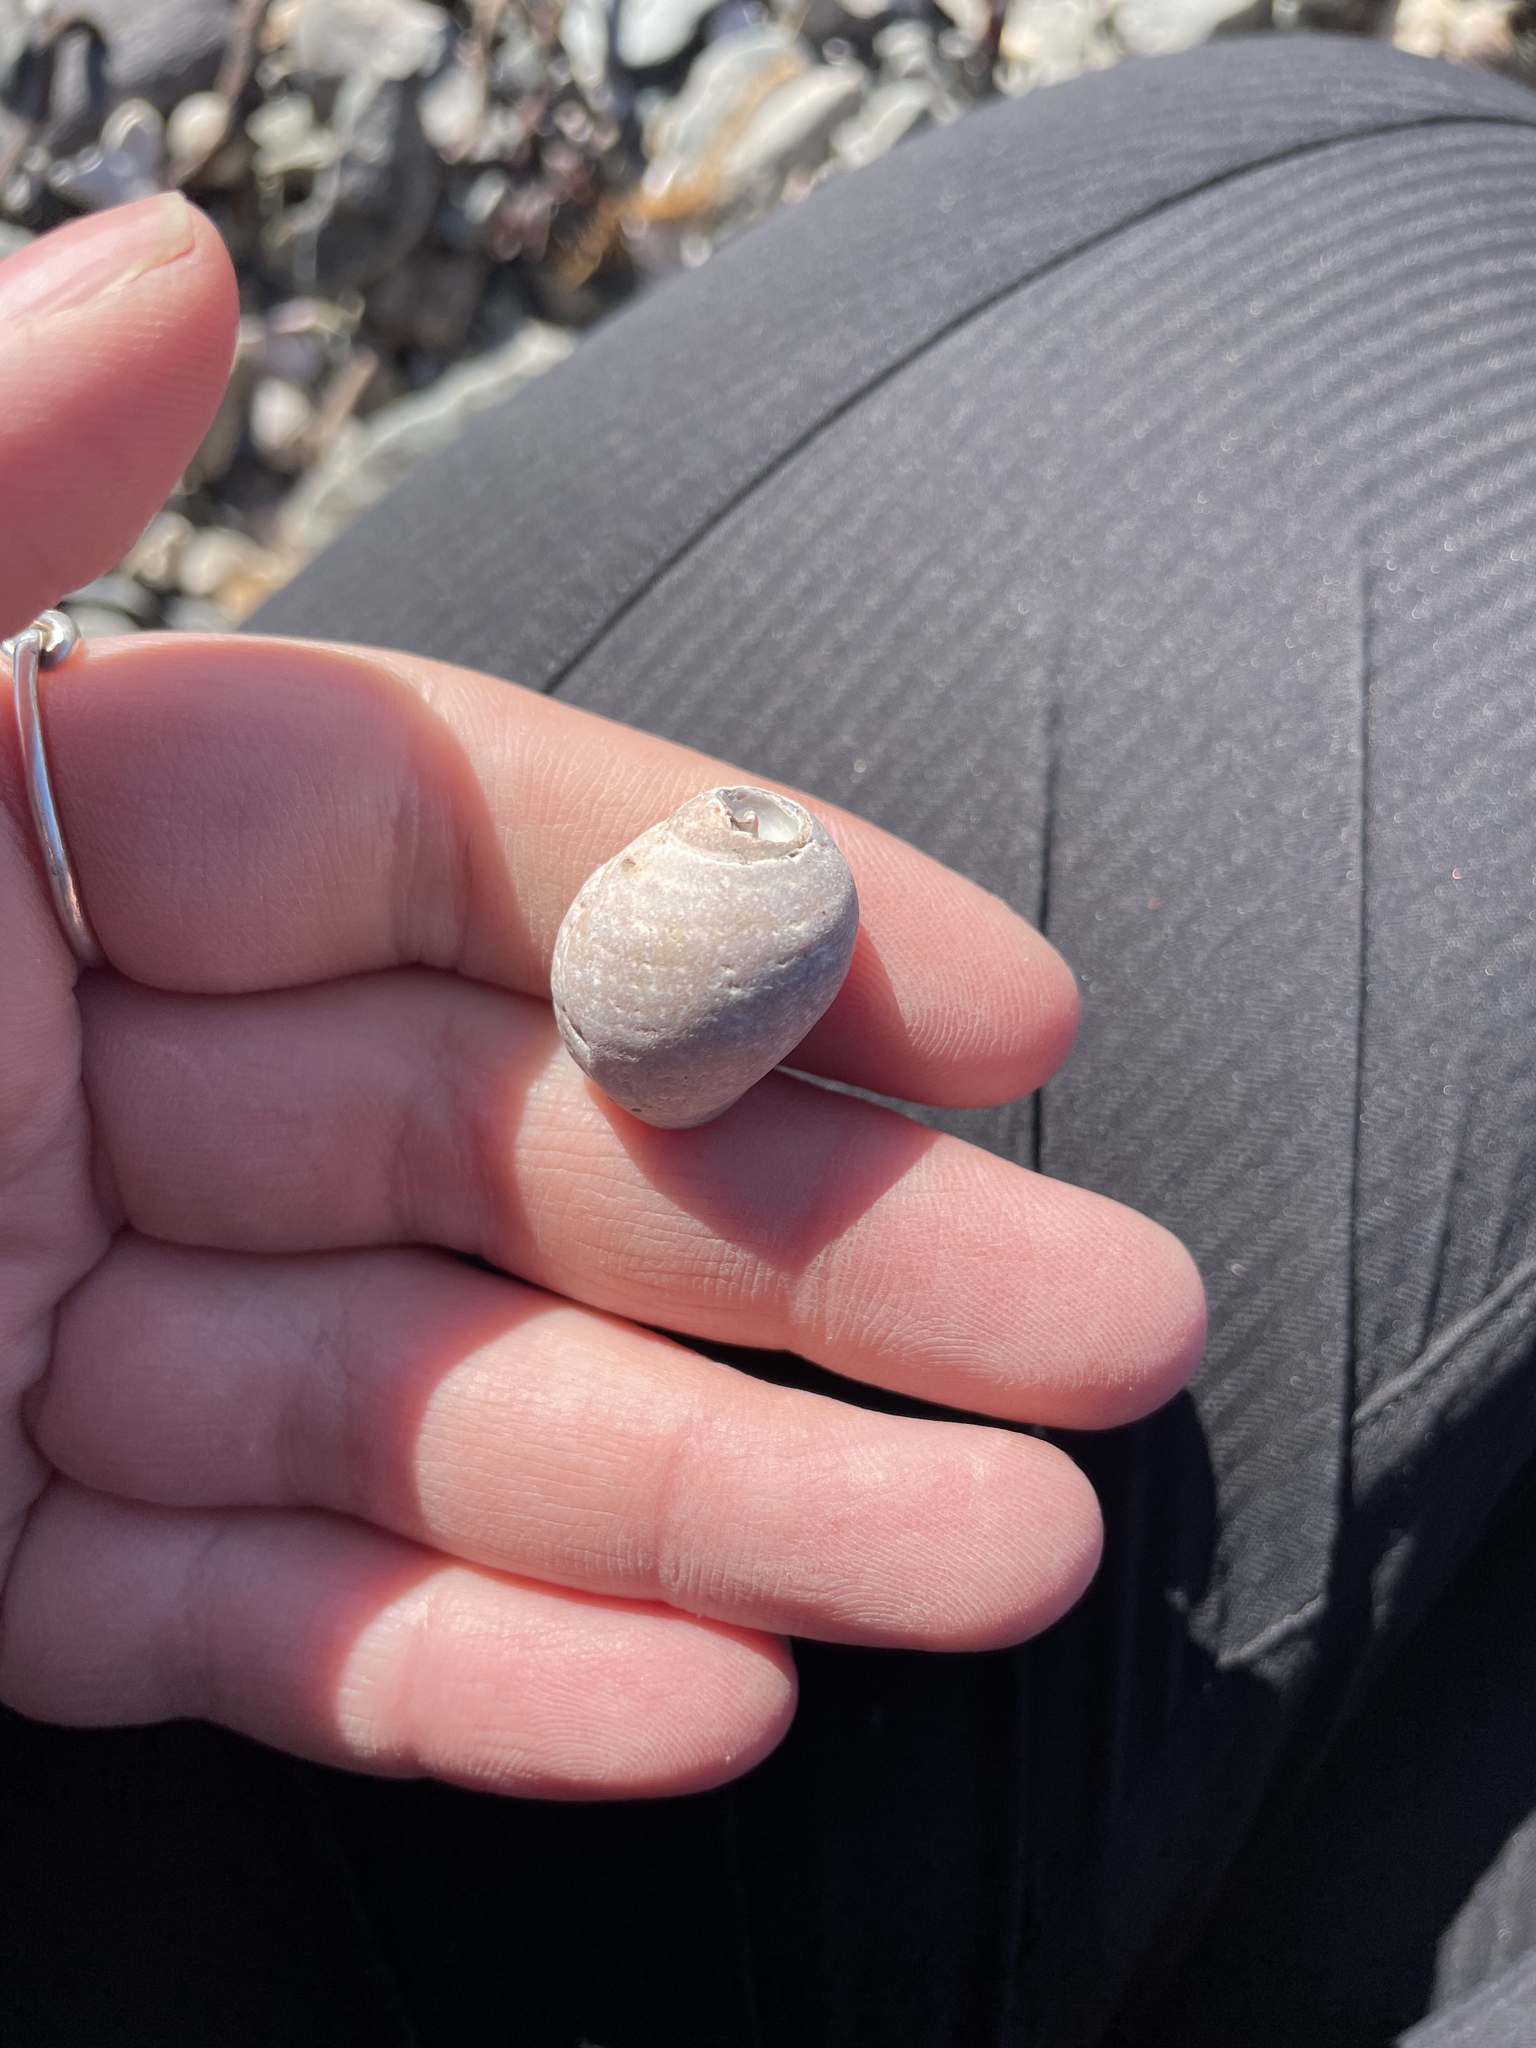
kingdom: Animalia
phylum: Mollusca
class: Gastropoda
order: Neogastropoda
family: Muricidae
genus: Nucella
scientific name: Nucella lapillus
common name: Dog whelk
